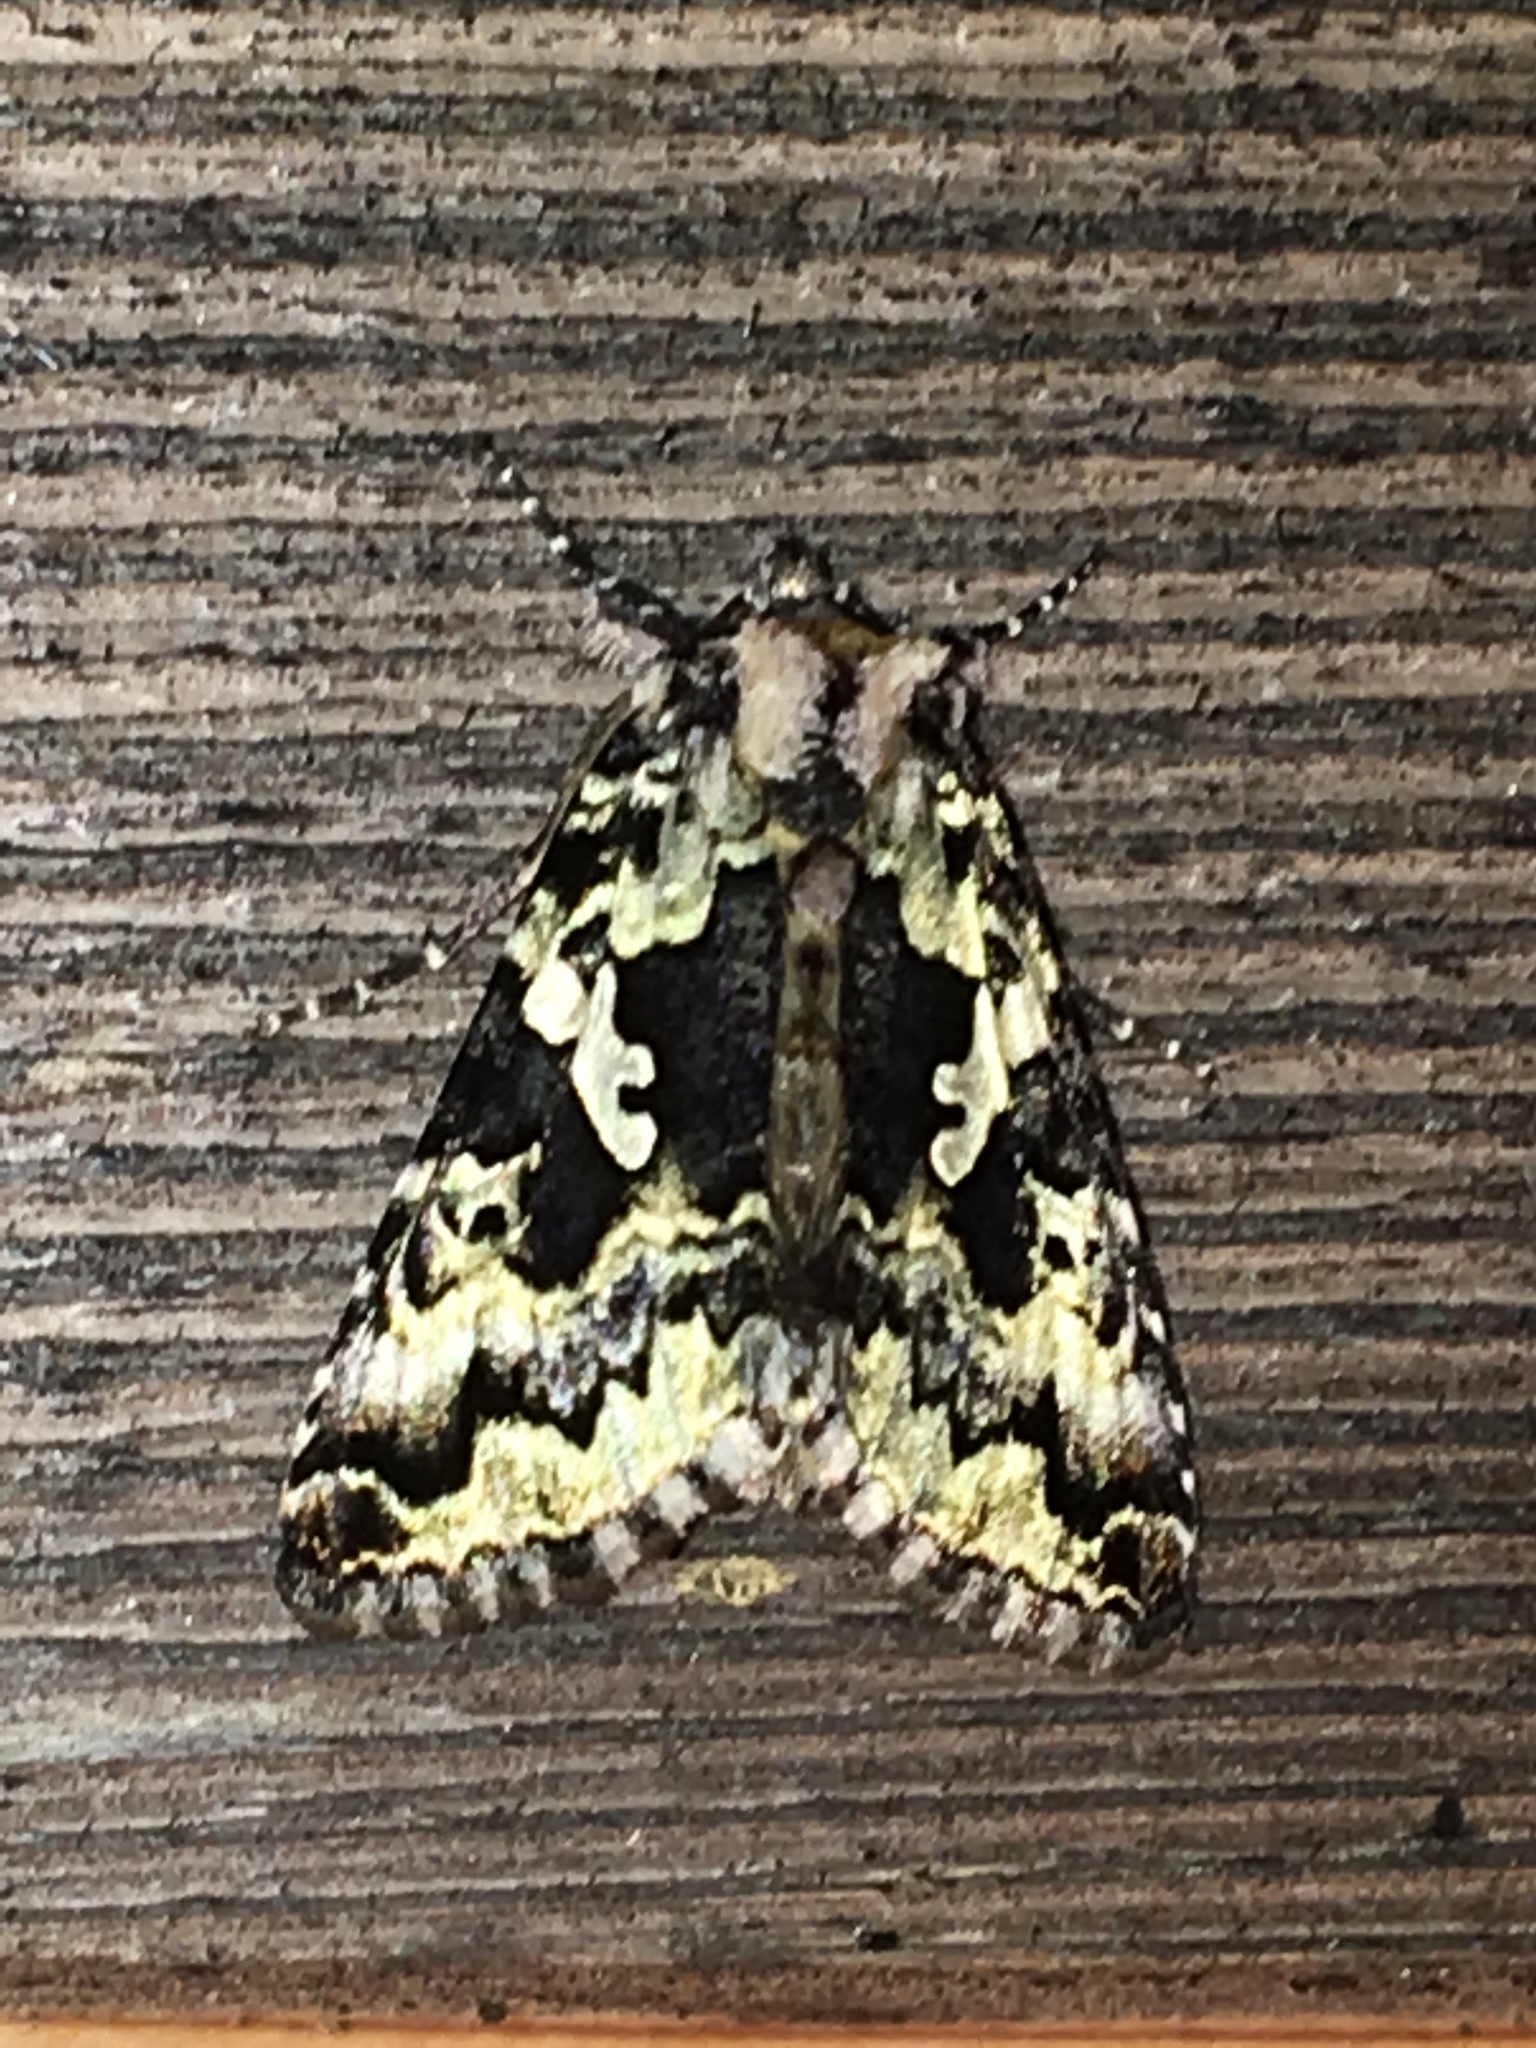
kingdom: Animalia
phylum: Arthropoda
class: Insecta
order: Lepidoptera
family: Noctuidae
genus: Syngrapha
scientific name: Syngrapha rectangula
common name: Angulated cutworm
